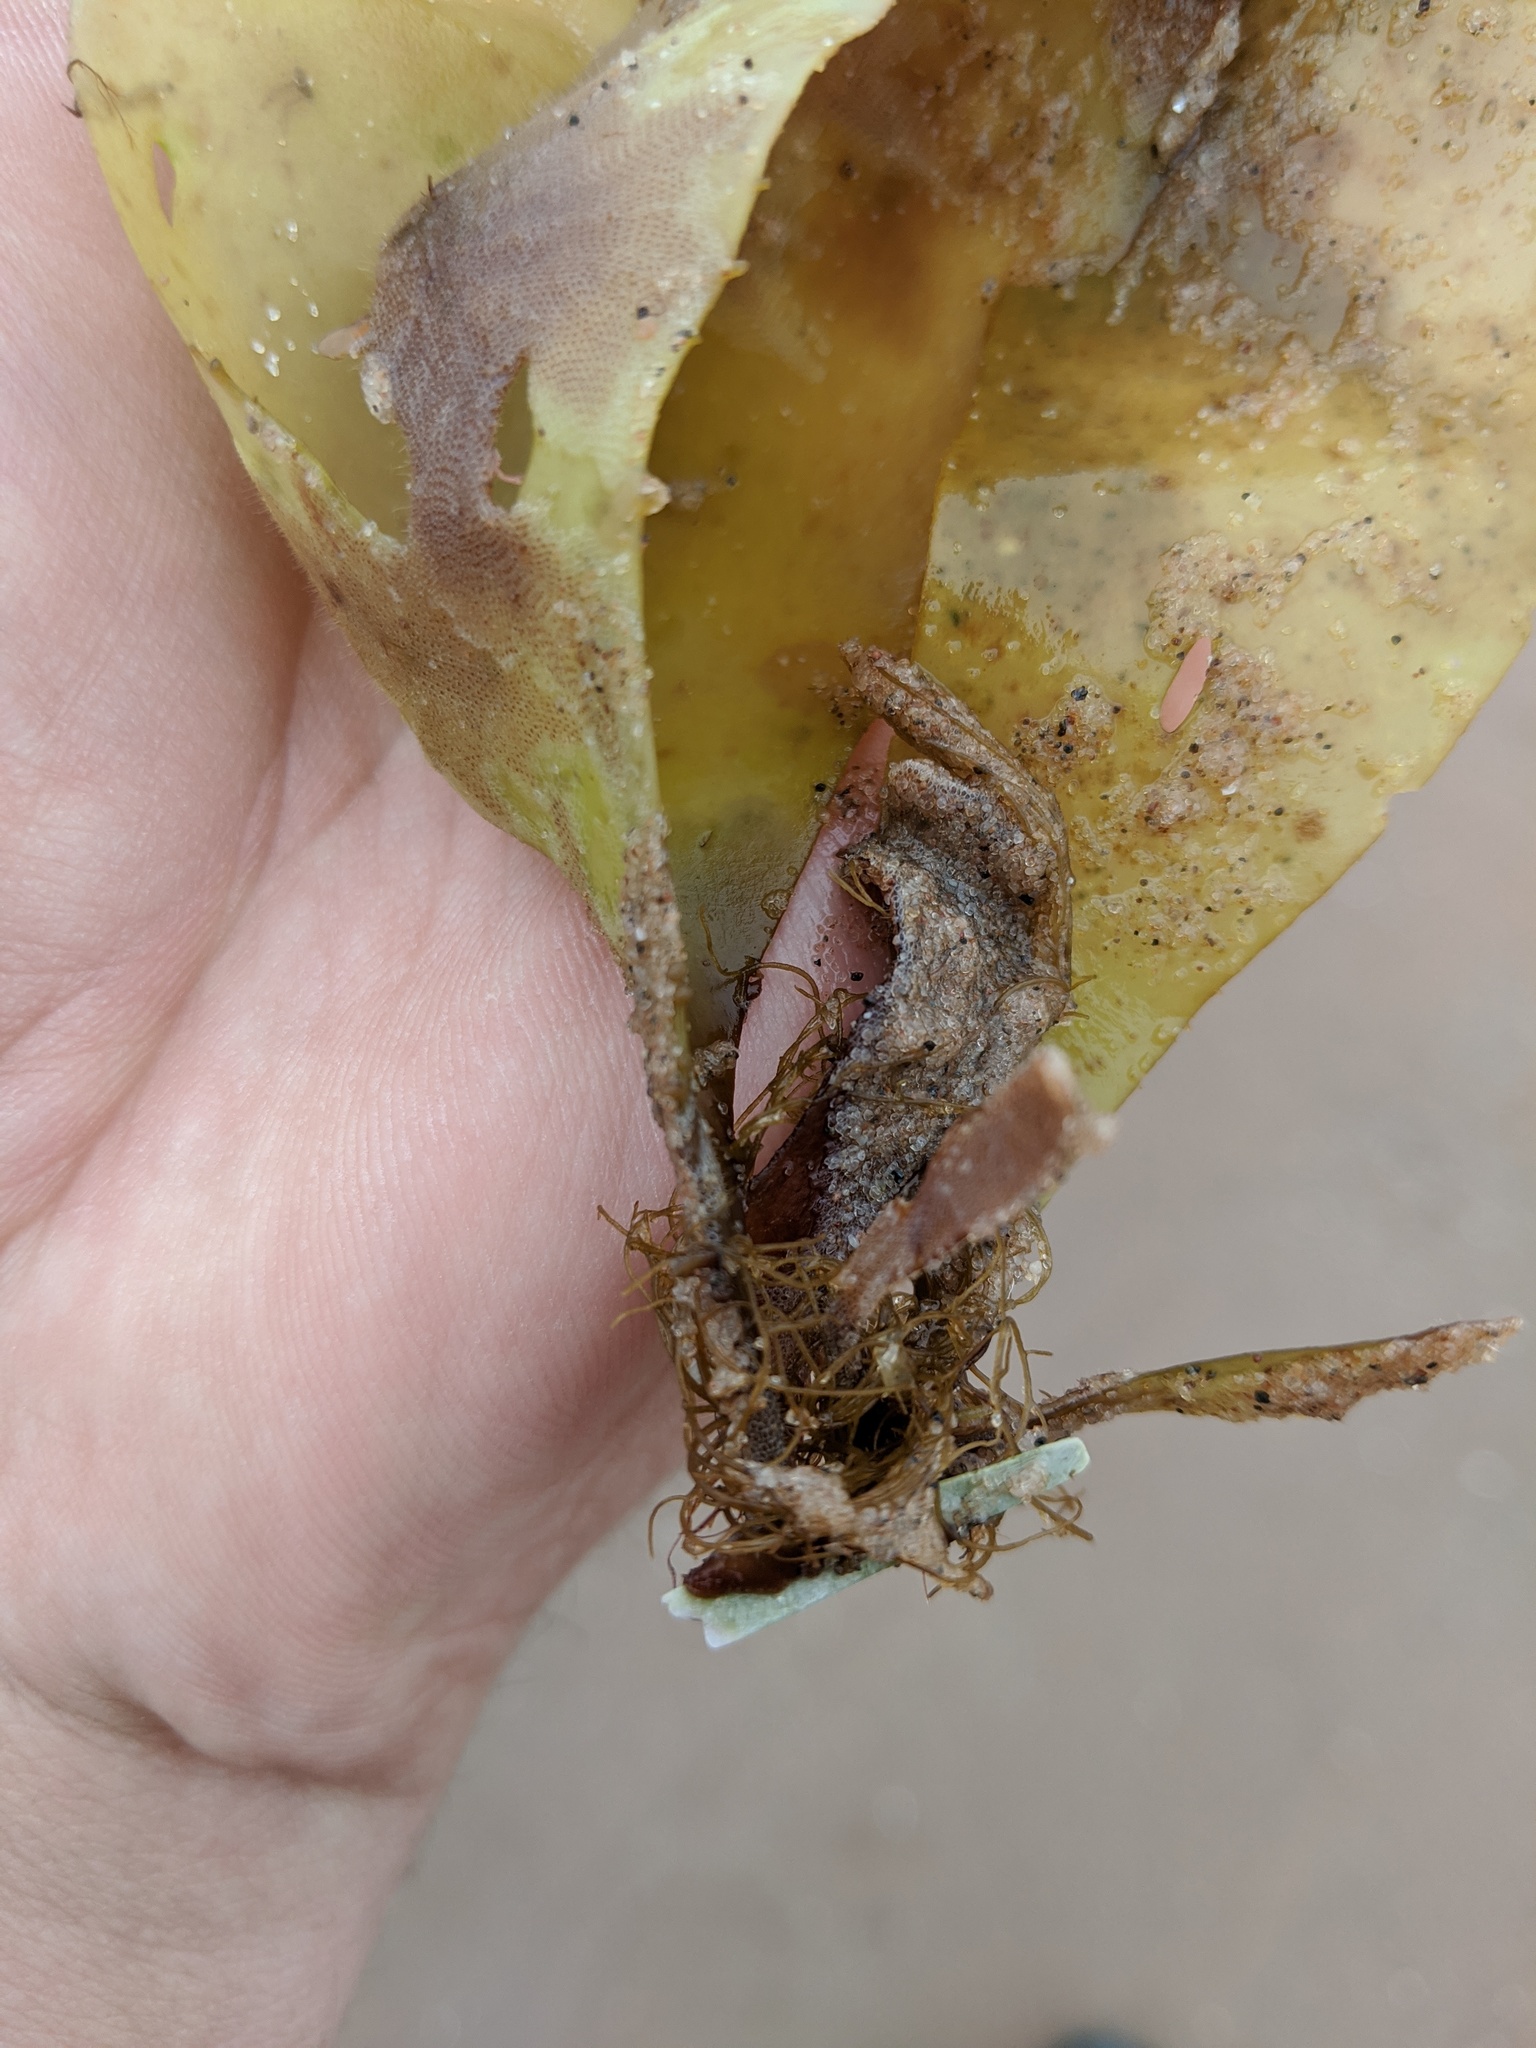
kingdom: Plantae
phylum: Rhodophyta
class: Florideophyceae
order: Palmariales
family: Palmariaceae
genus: Palmaria
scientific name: Palmaria palmata
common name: Dulse
